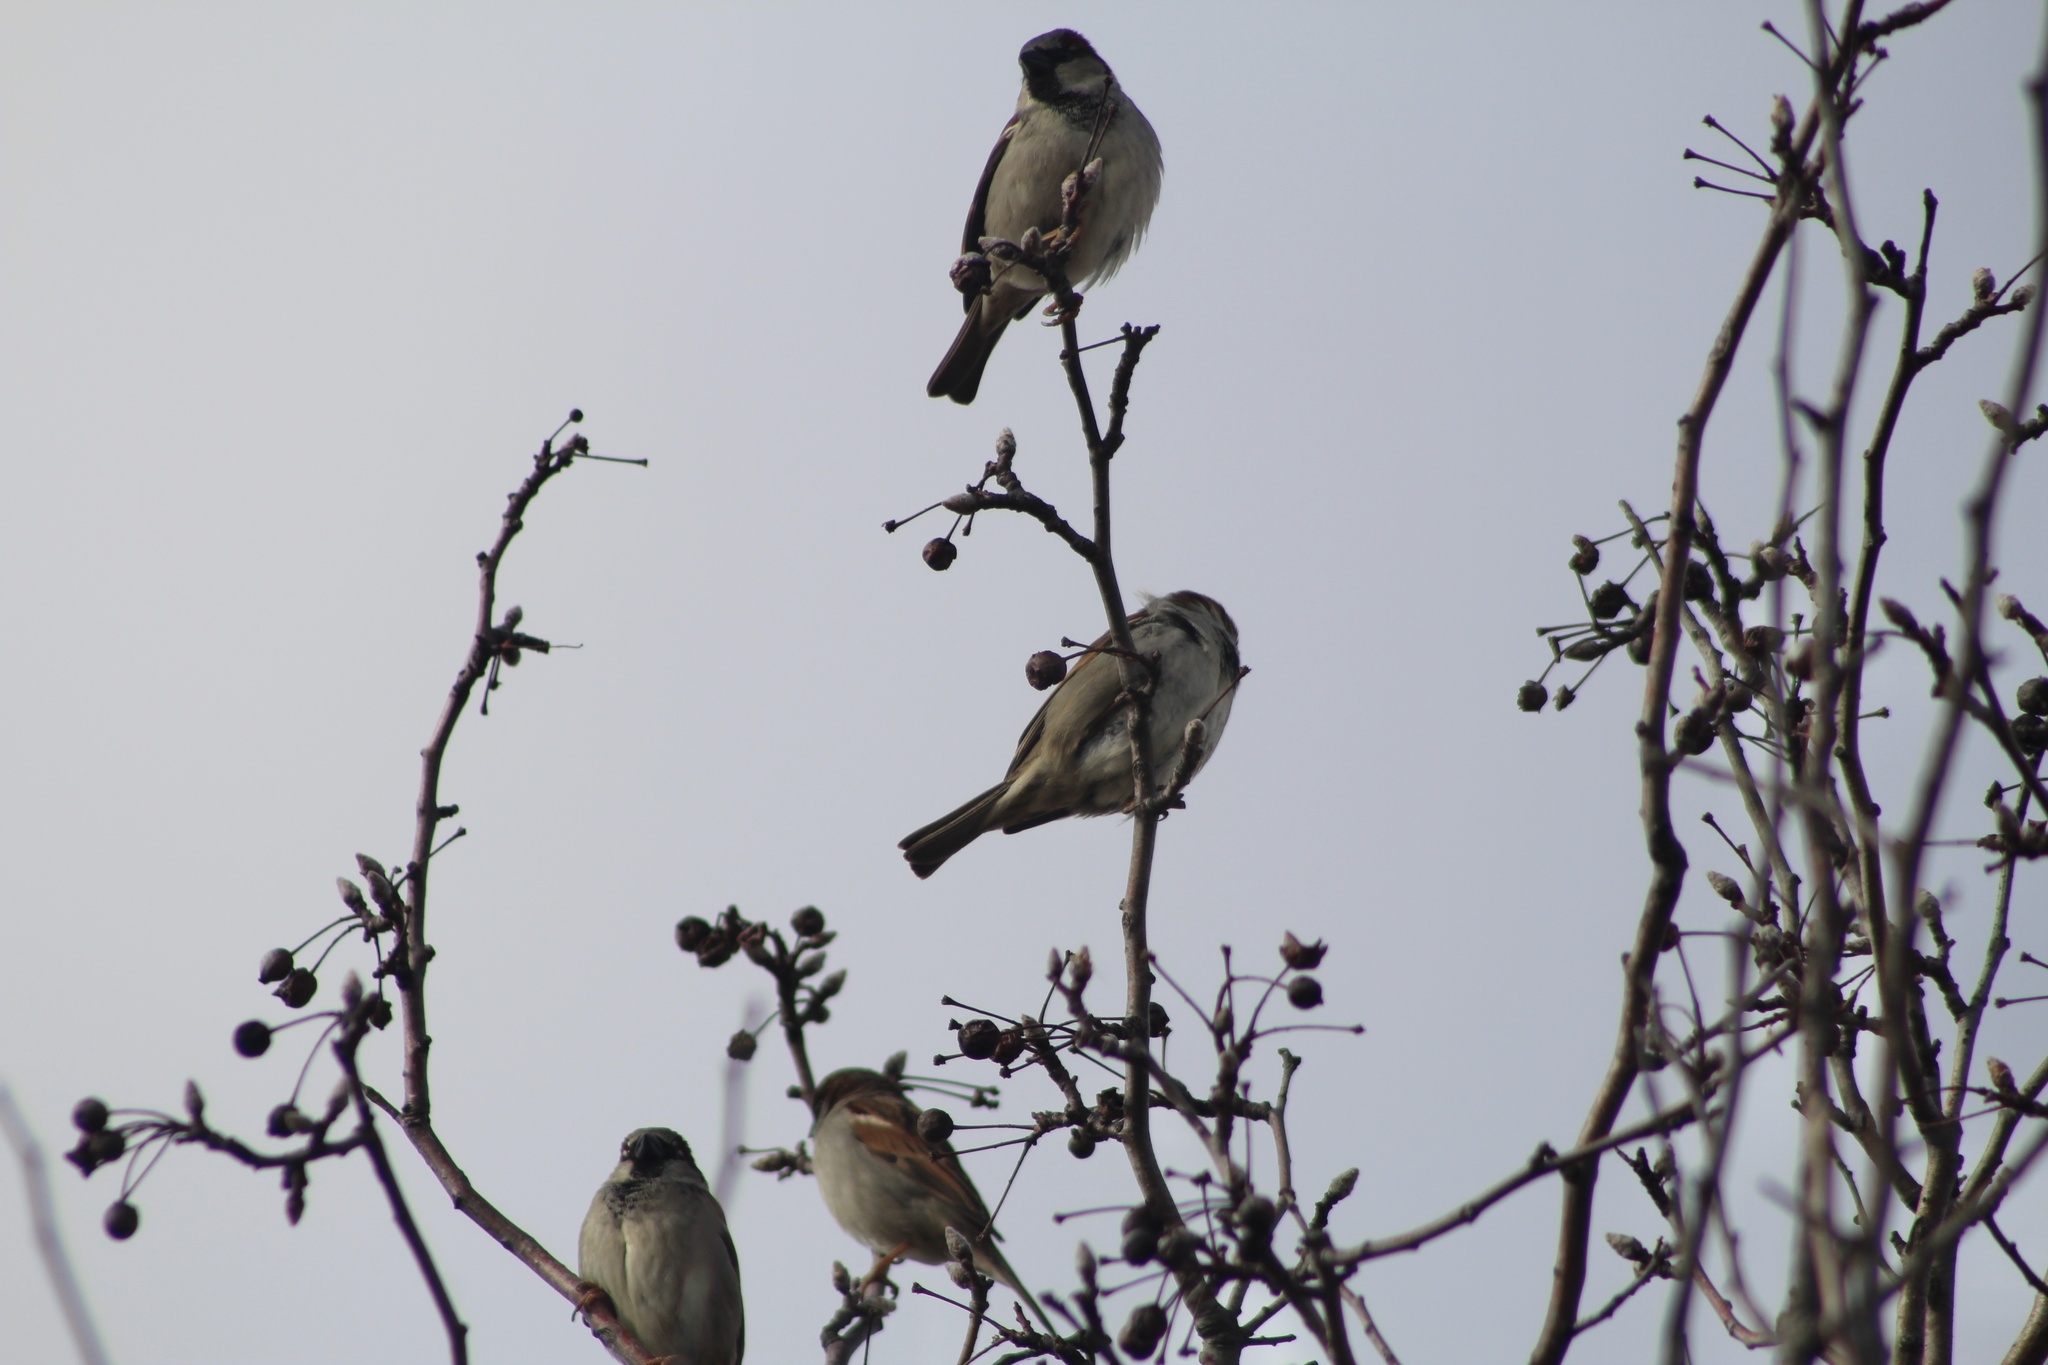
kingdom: Animalia
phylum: Chordata
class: Aves
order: Passeriformes
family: Passeridae
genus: Passer
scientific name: Passer domesticus
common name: House sparrow
